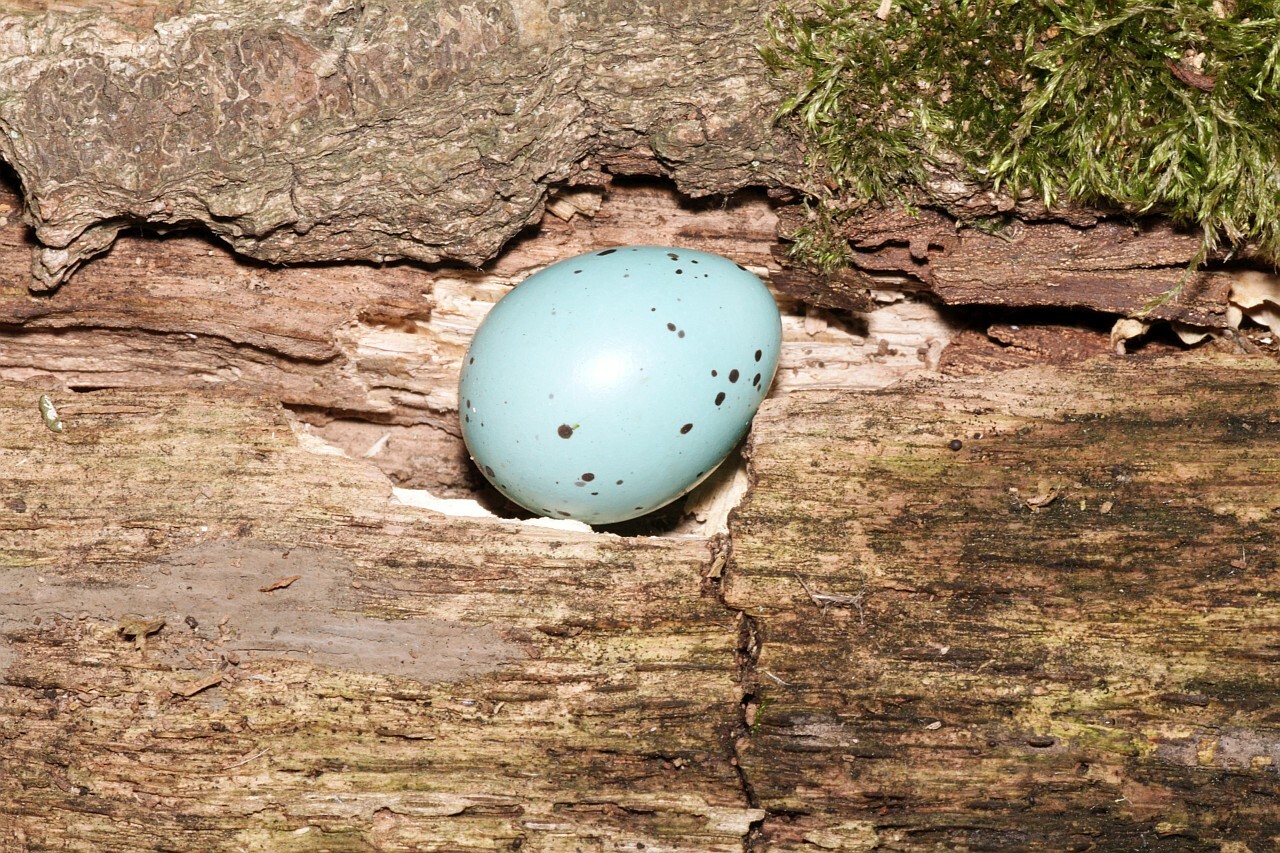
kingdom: Animalia
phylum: Chordata
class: Aves
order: Passeriformes
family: Turdidae
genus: Turdus
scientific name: Turdus philomelos
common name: Song thrush
